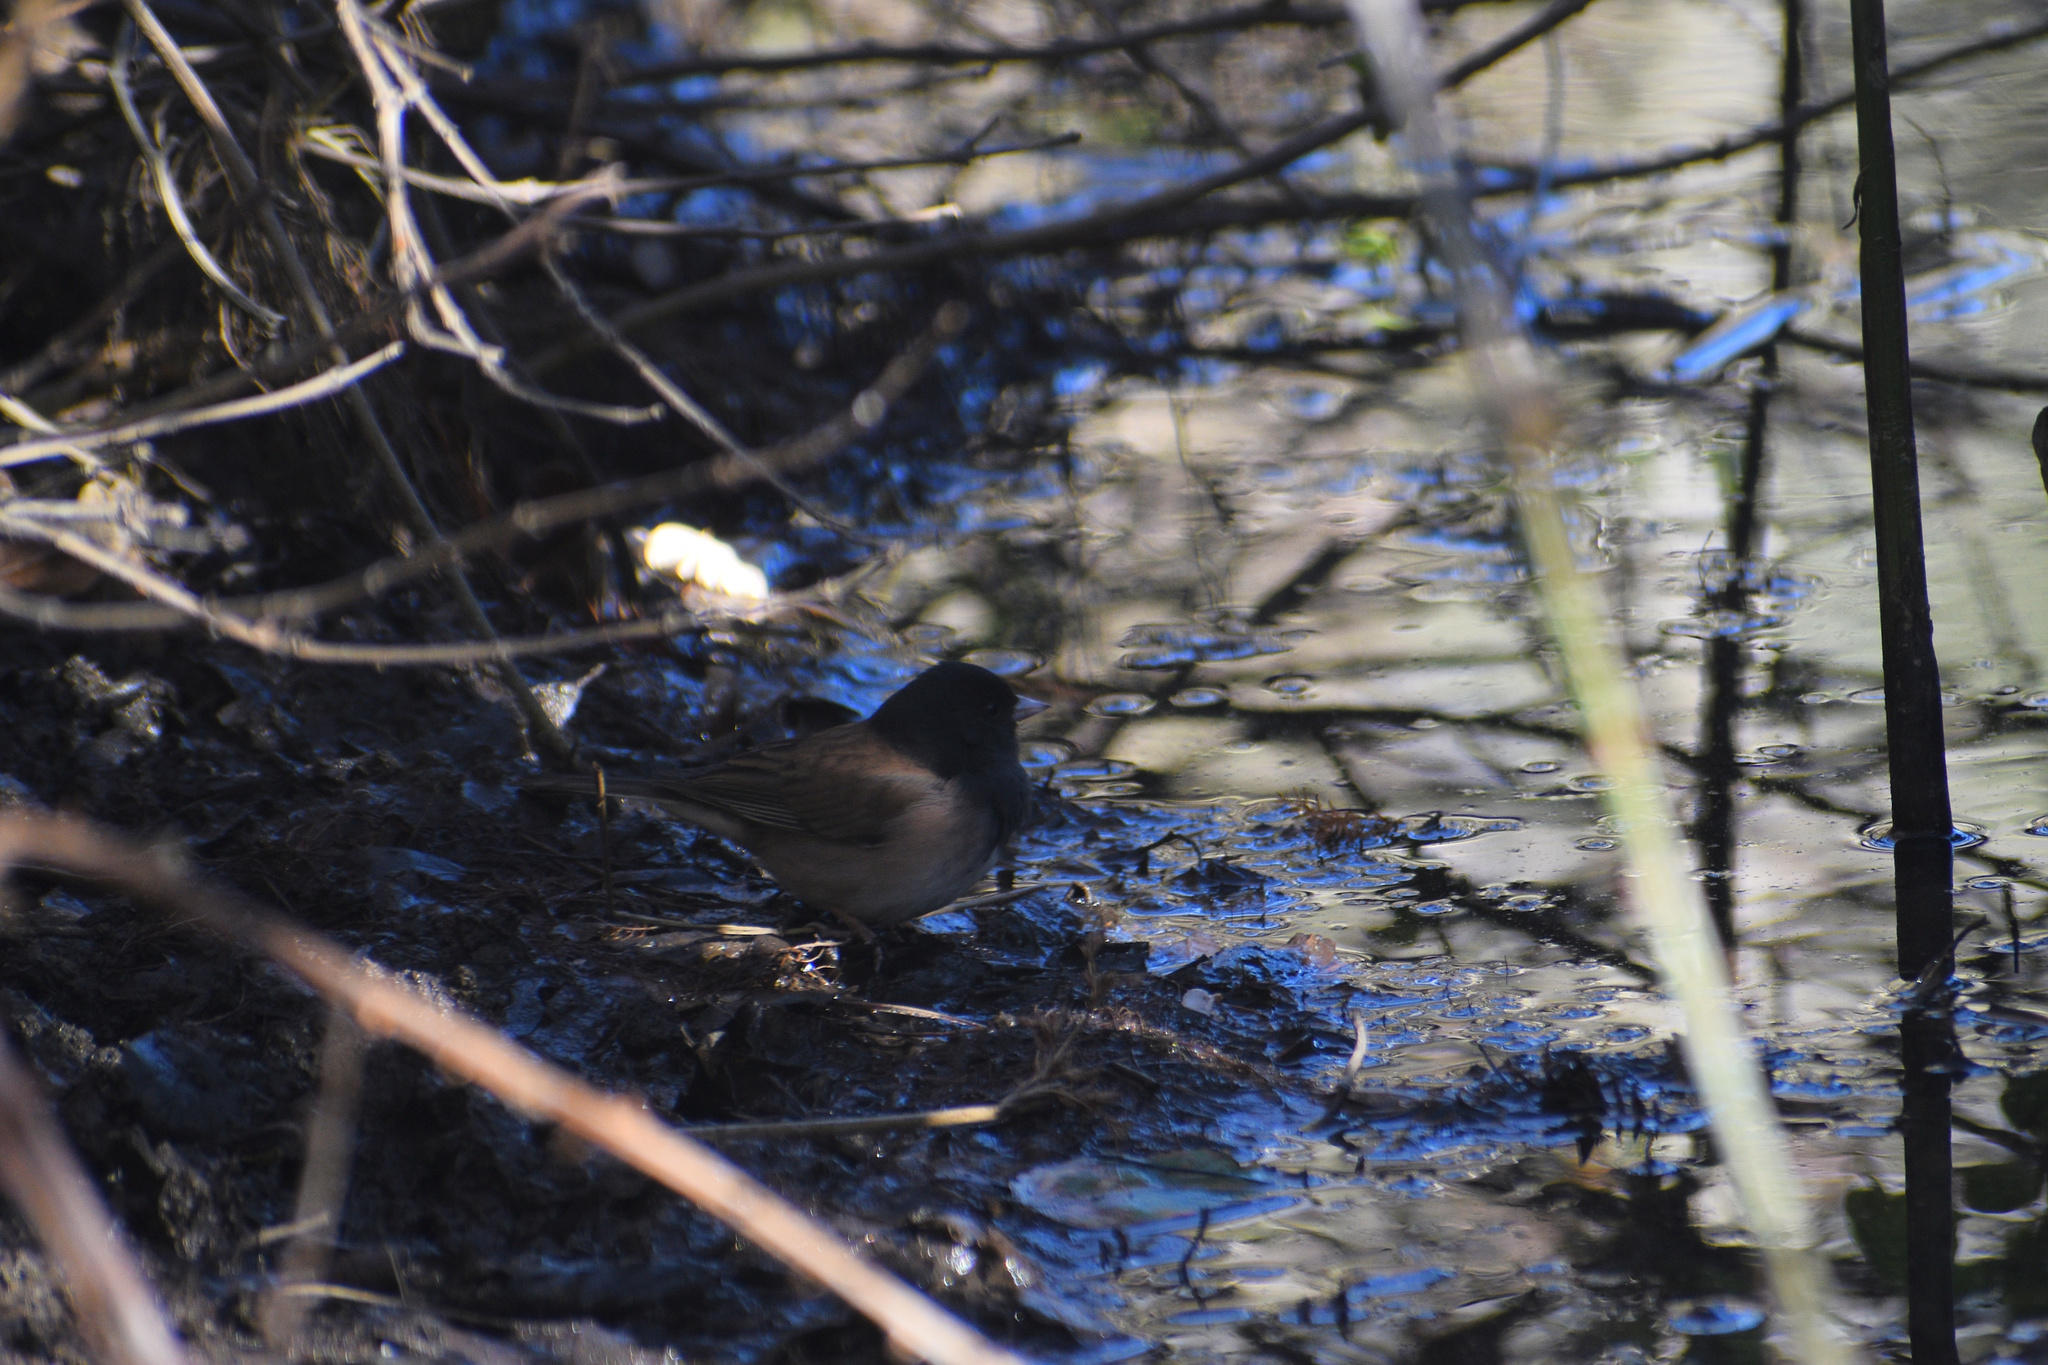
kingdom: Animalia
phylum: Chordata
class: Aves
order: Passeriformes
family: Passerellidae
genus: Junco
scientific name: Junco hyemalis
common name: Dark-eyed junco
